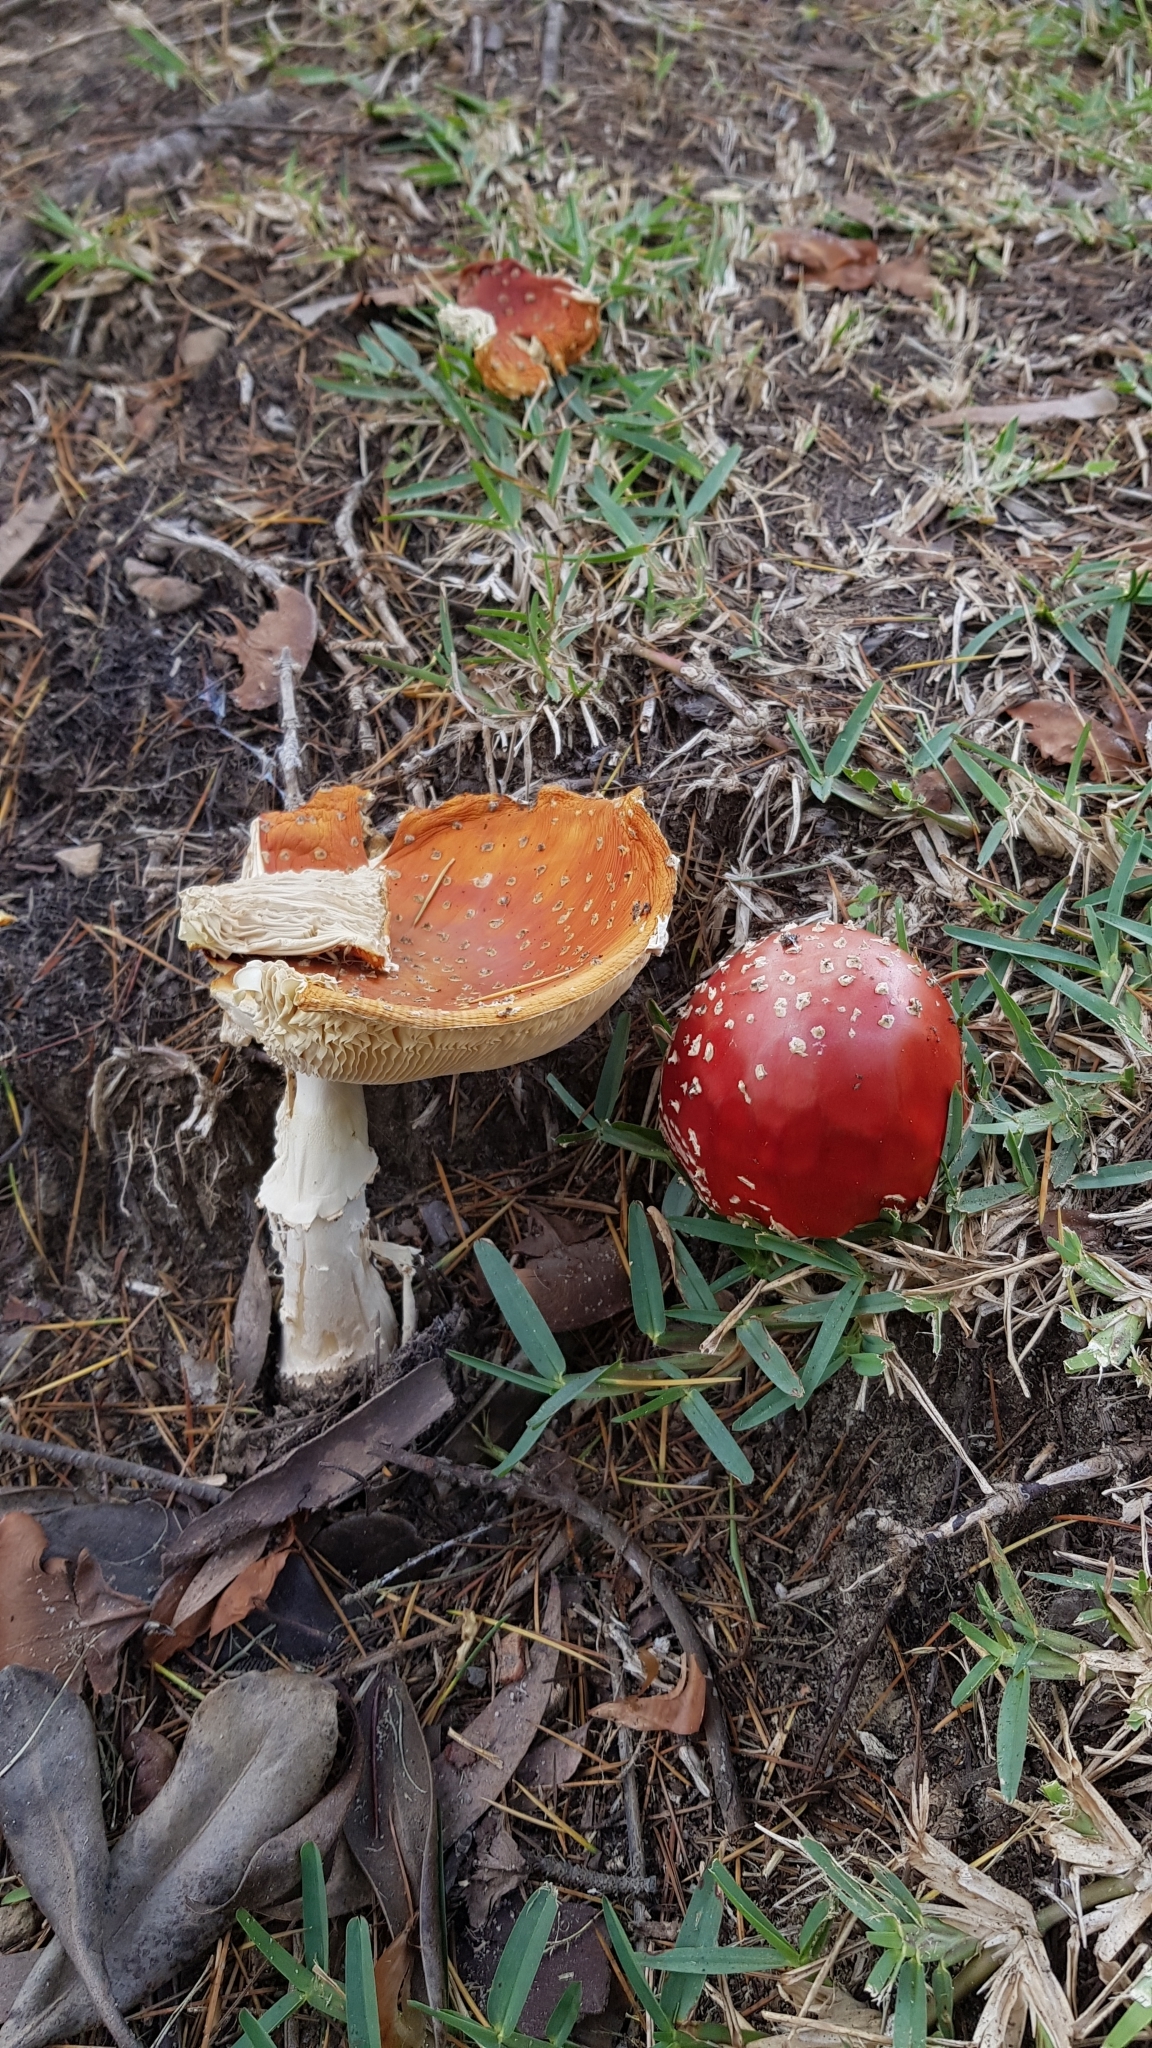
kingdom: Fungi
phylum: Basidiomycota
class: Agaricomycetes
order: Agaricales
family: Amanitaceae
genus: Amanita
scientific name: Amanita muscaria
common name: Fly agaric
